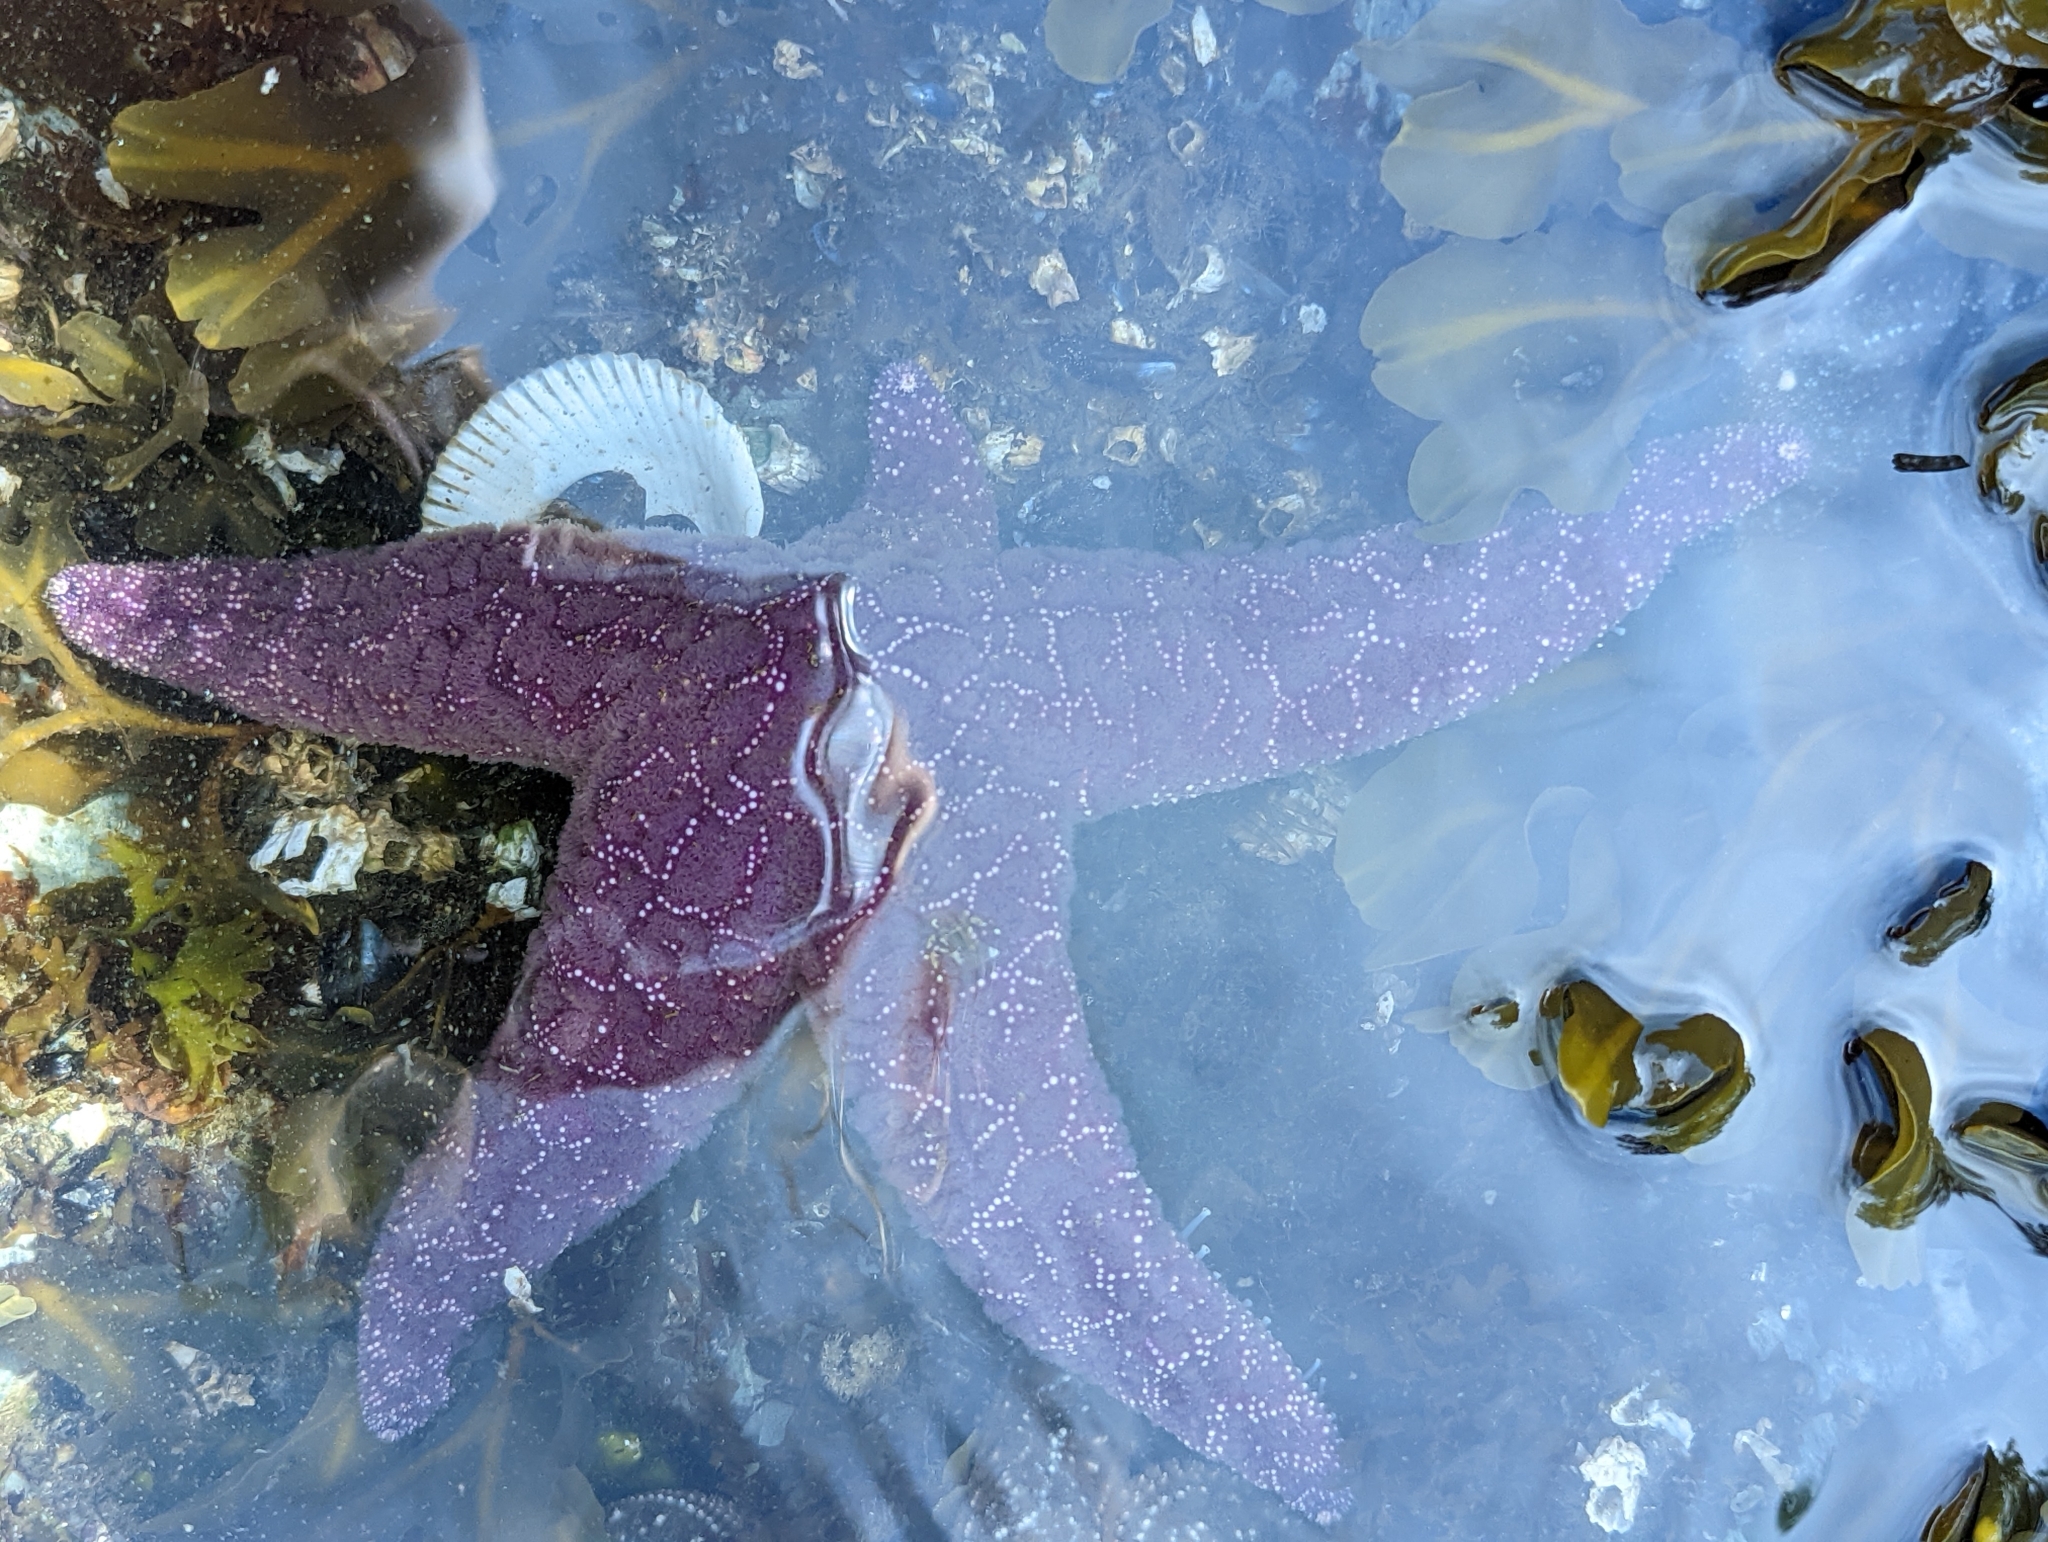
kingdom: Animalia
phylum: Echinodermata
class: Asteroidea
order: Forcipulatida
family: Asteriidae
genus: Pisaster
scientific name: Pisaster ochraceus
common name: Ochre stars
